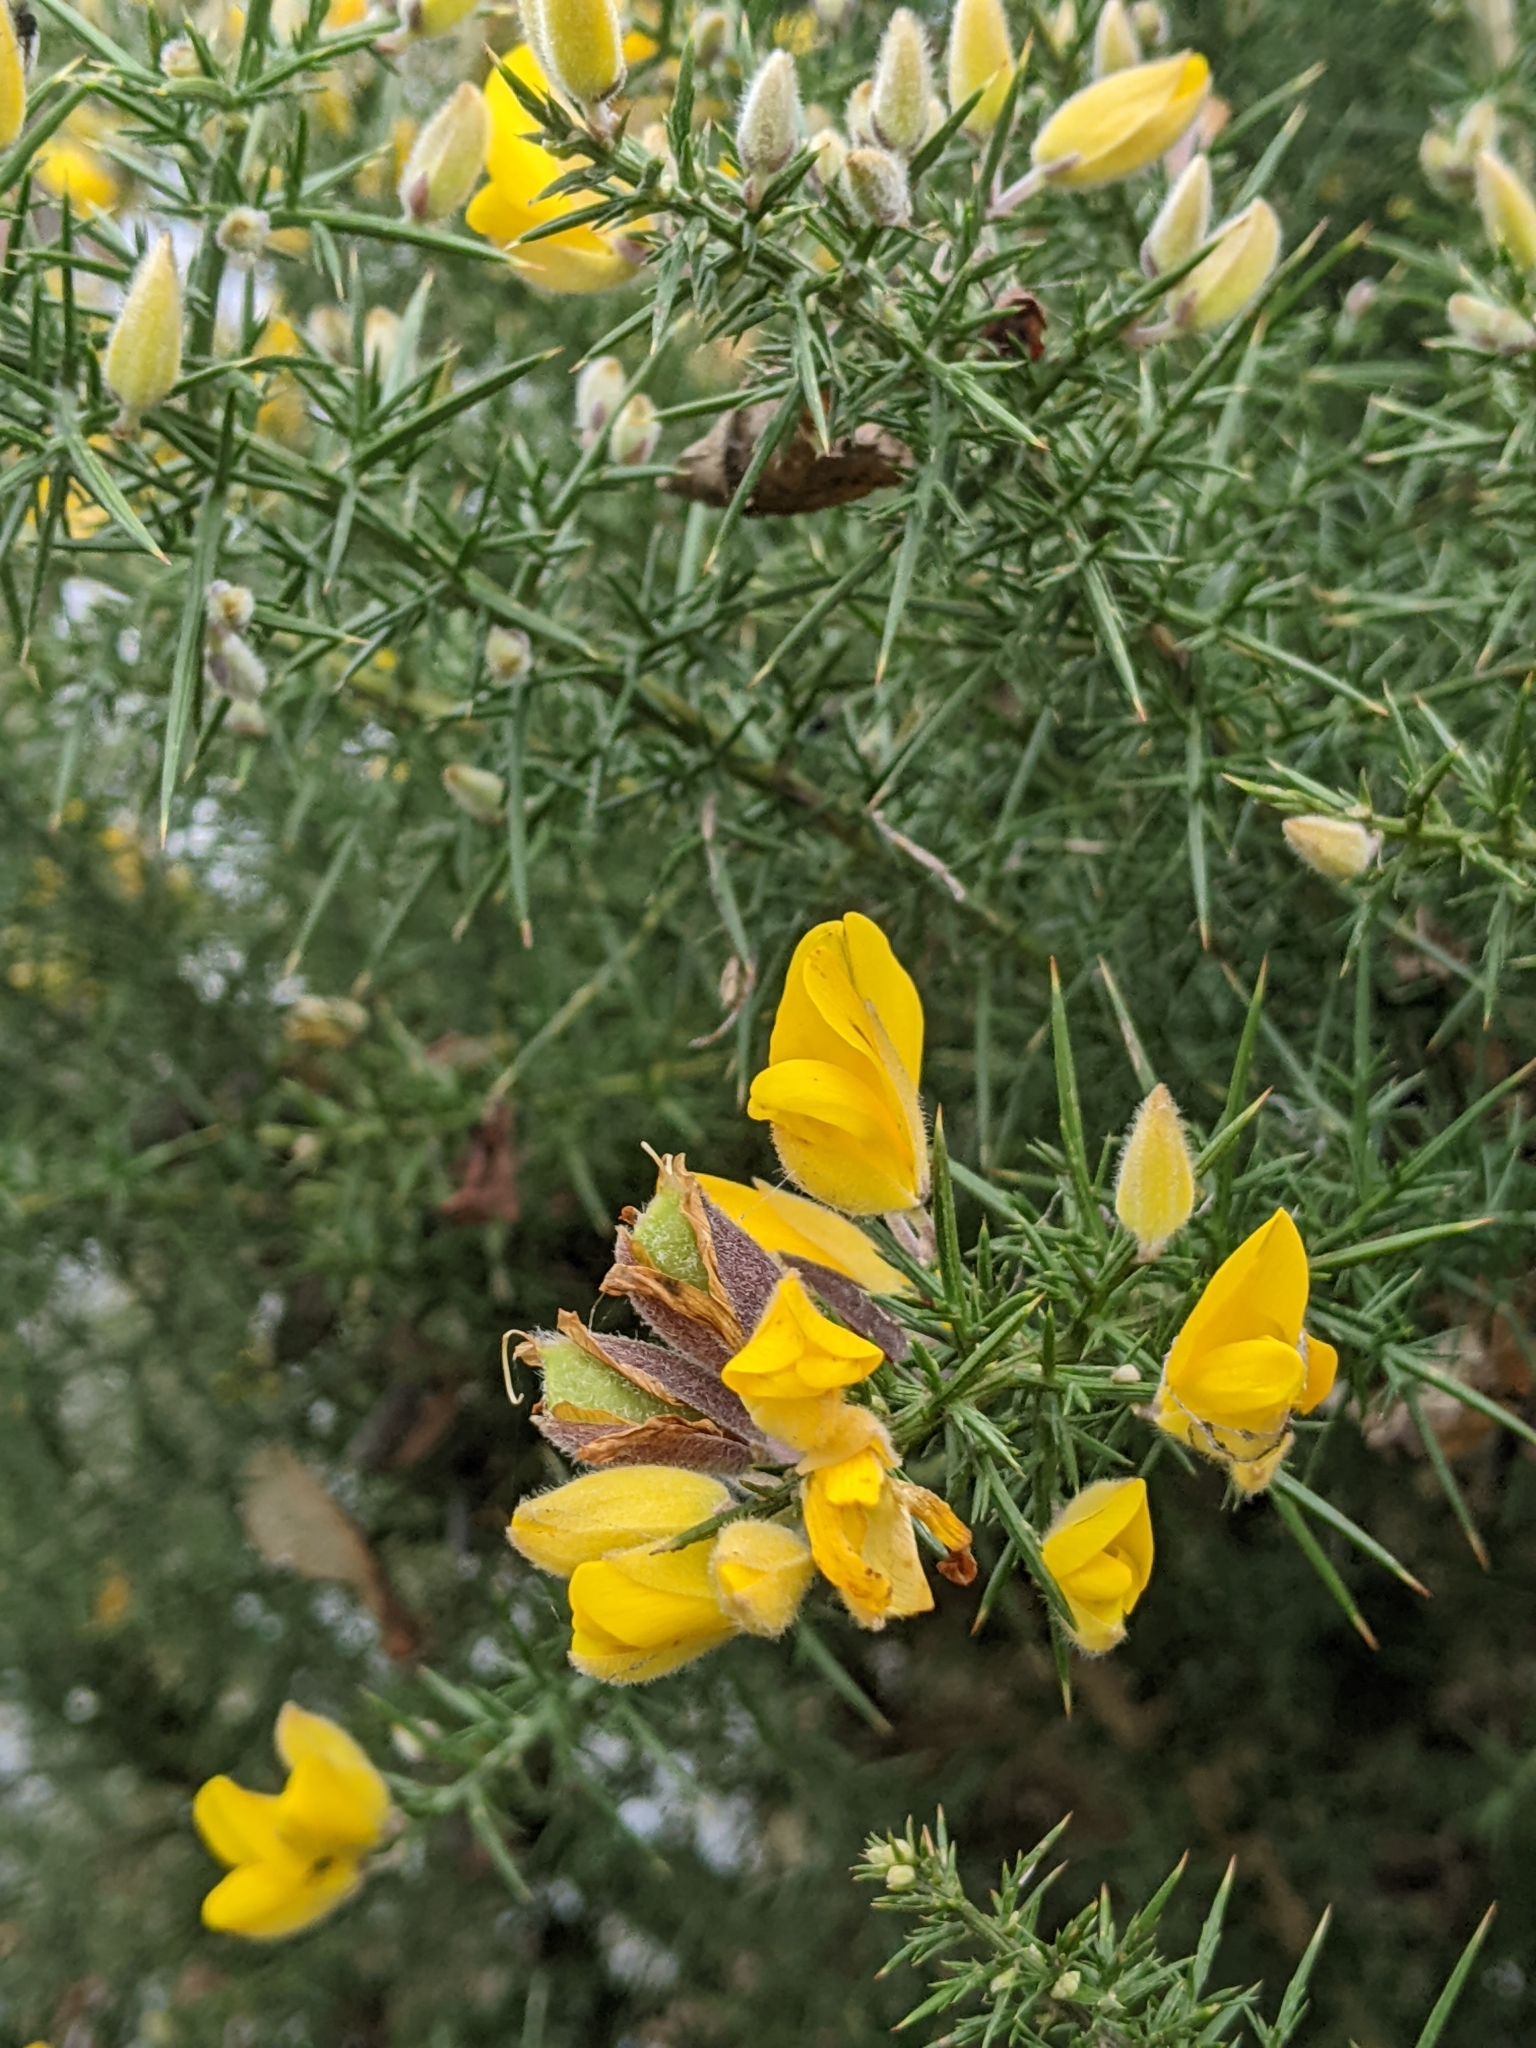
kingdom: Plantae
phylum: Tracheophyta
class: Magnoliopsida
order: Fabales
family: Fabaceae
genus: Ulex
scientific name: Ulex europaeus
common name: Common gorse
